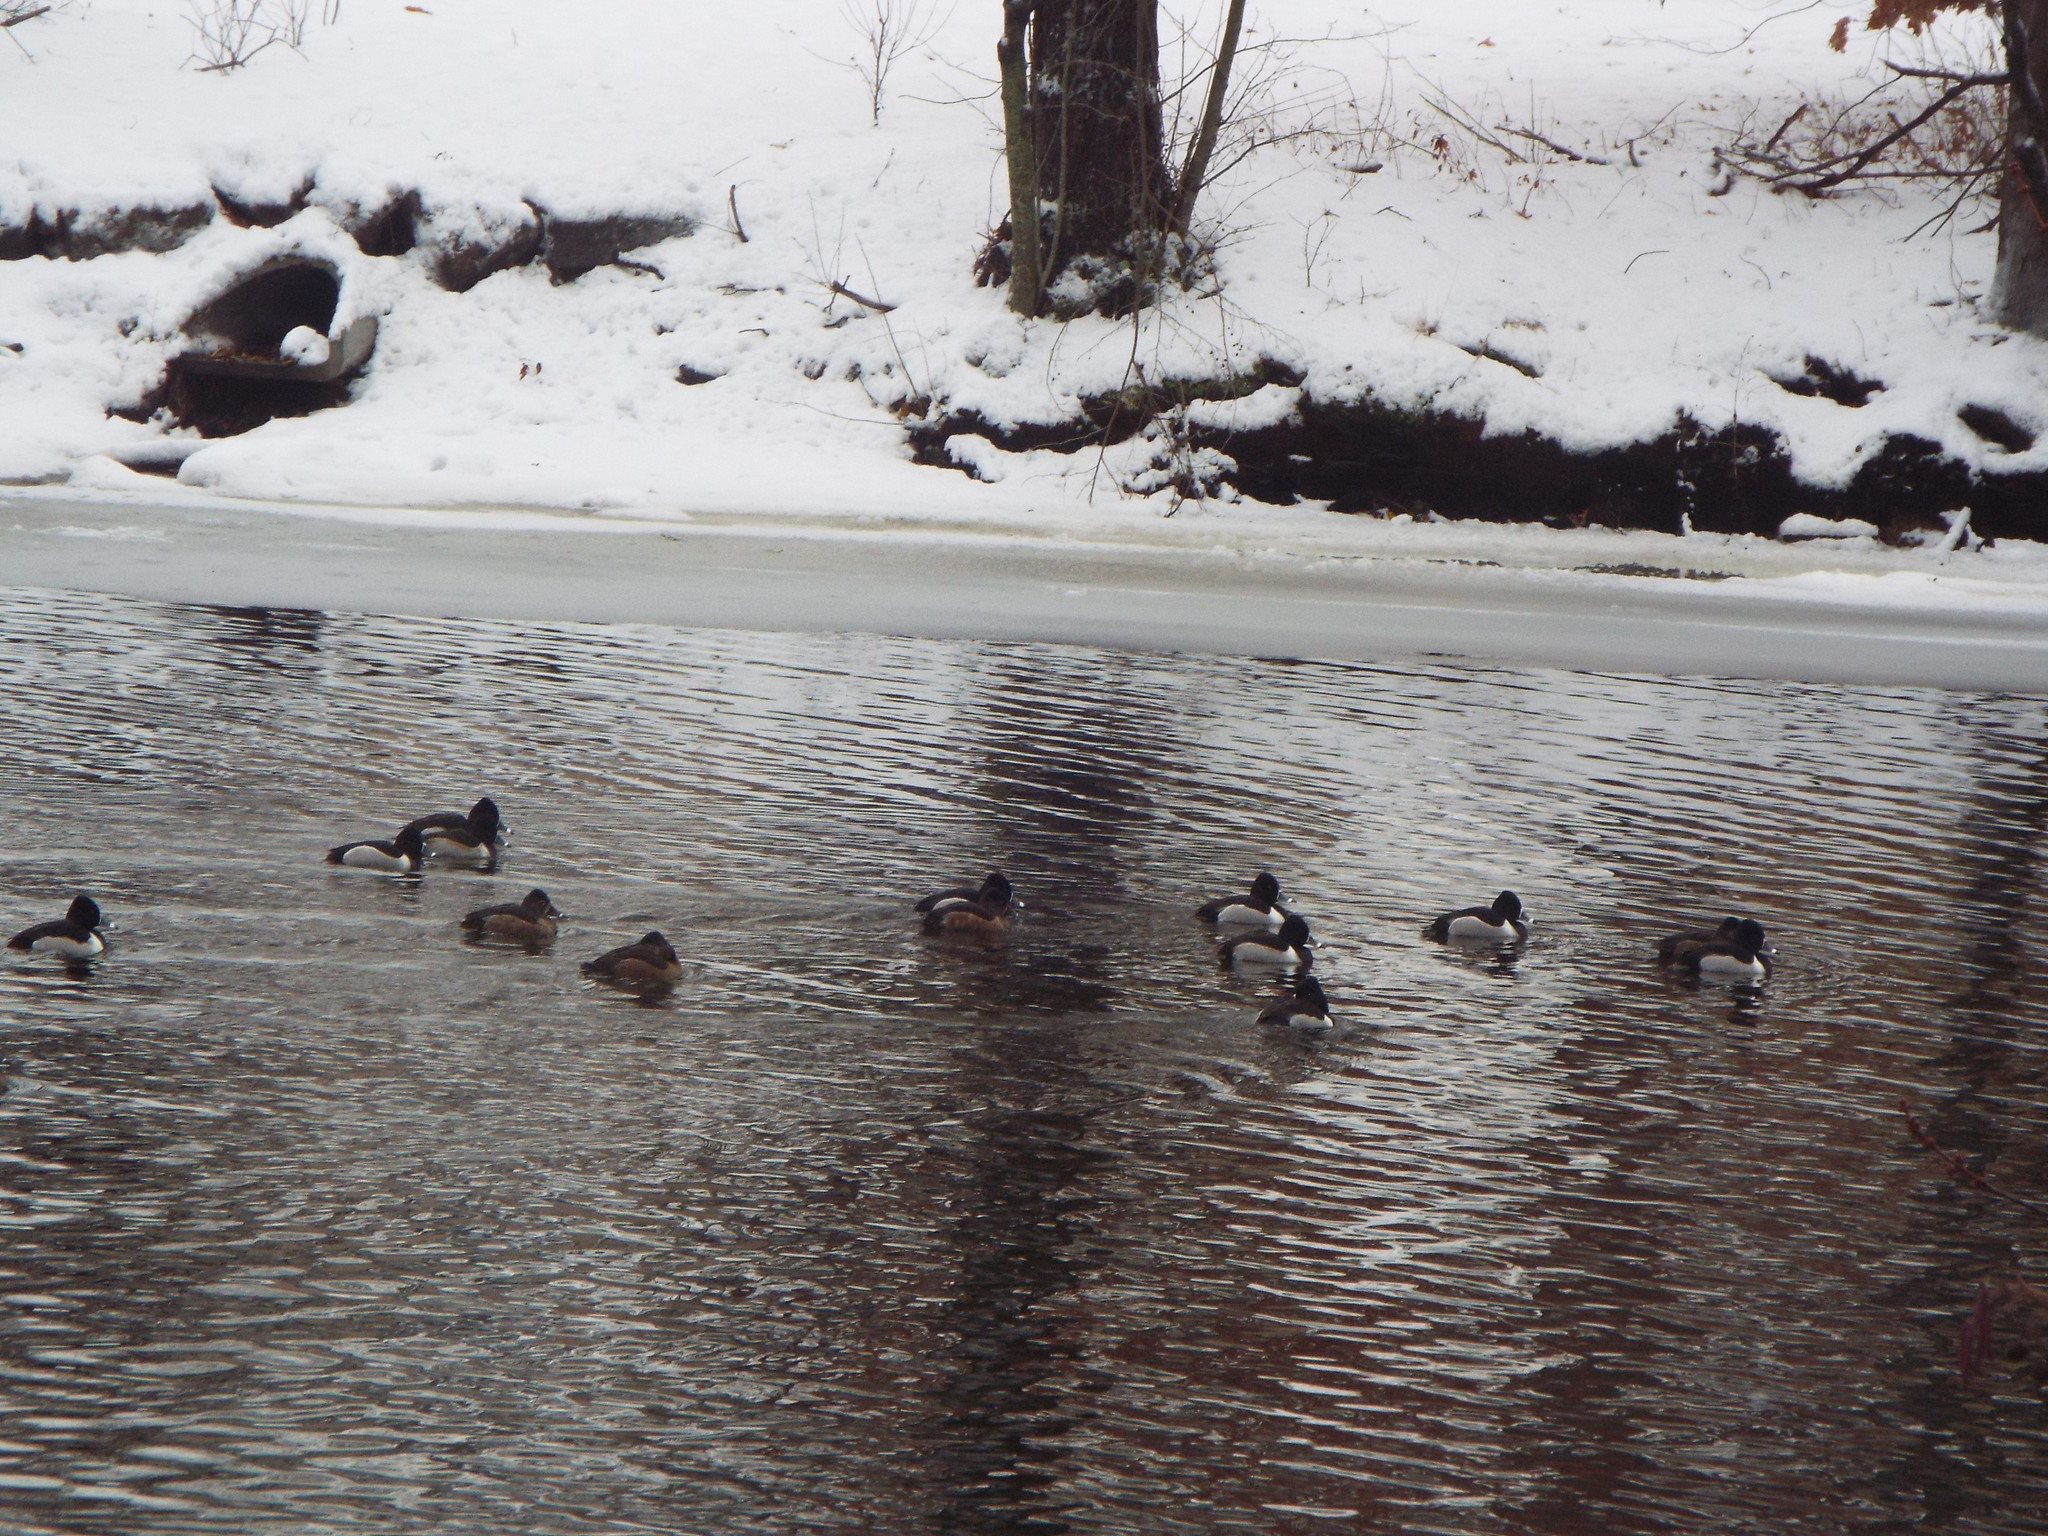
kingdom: Animalia
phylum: Chordata
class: Aves
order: Anseriformes
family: Anatidae
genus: Aythya
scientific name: Aythya collaris
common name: Ring-necked duck
